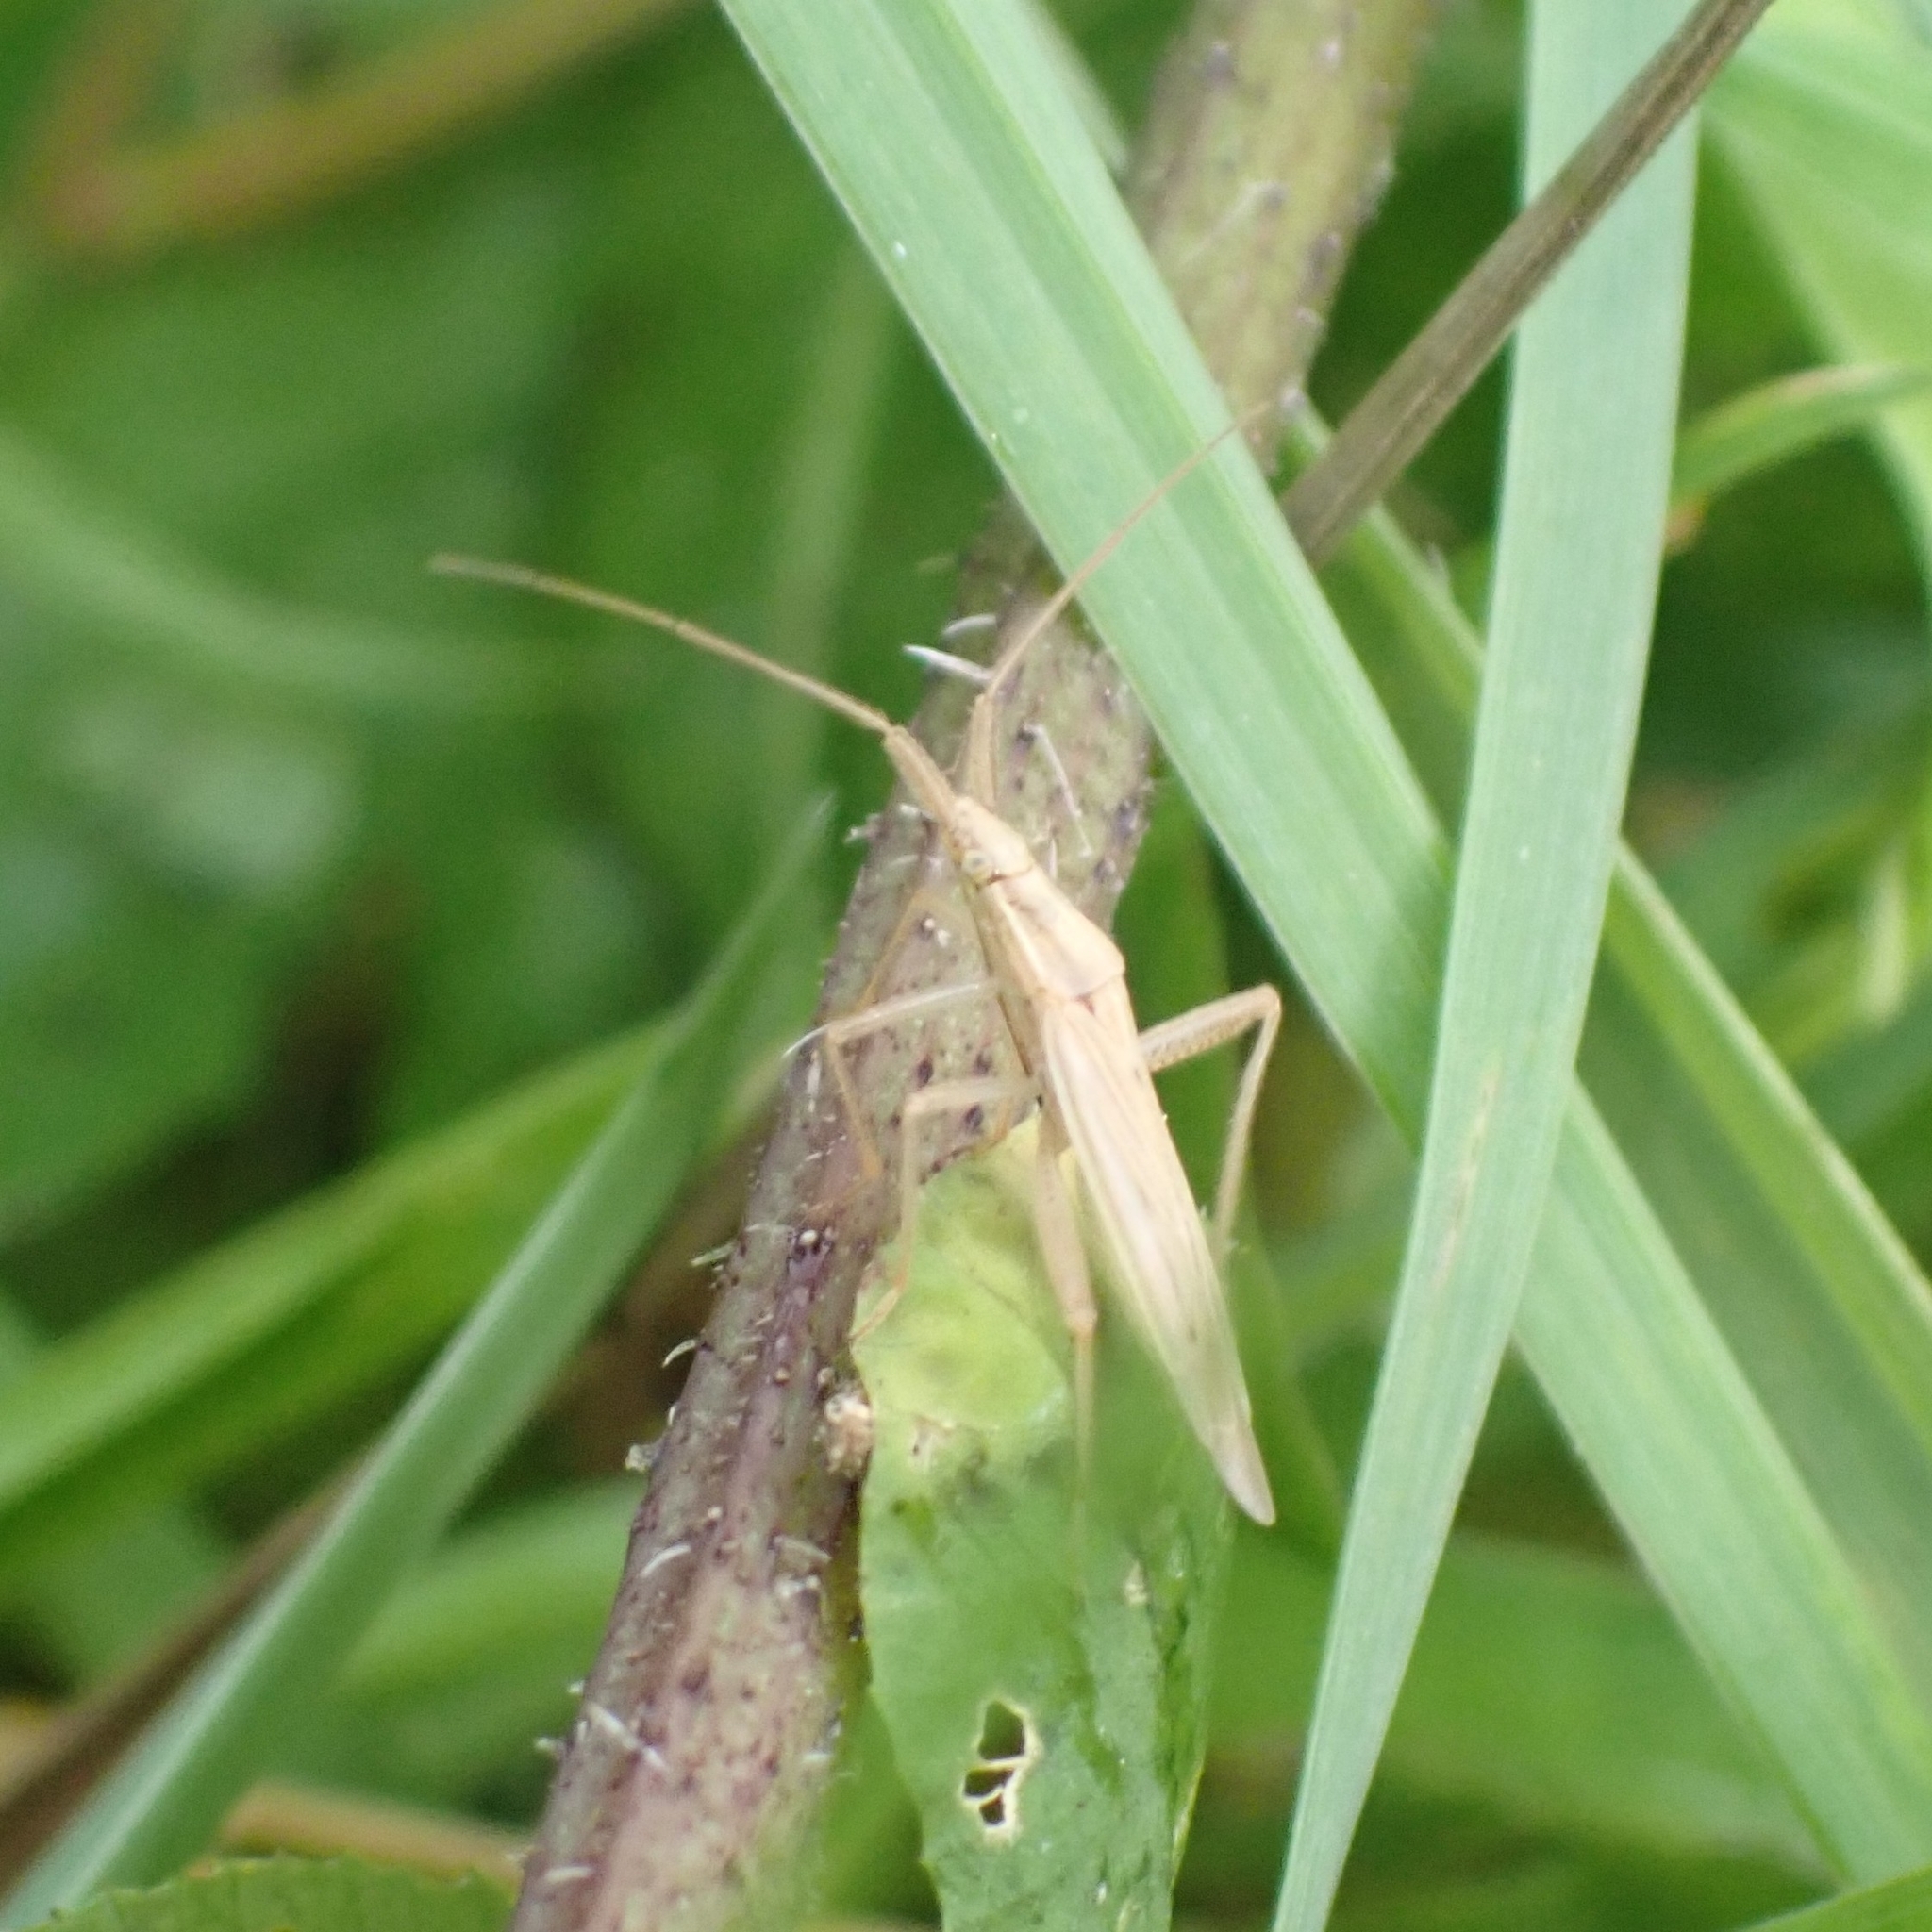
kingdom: Animalia
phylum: Arthropoda
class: Insecta
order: Hemiptera
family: Miridae
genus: Stenodema
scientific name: Stenodema laevigata
